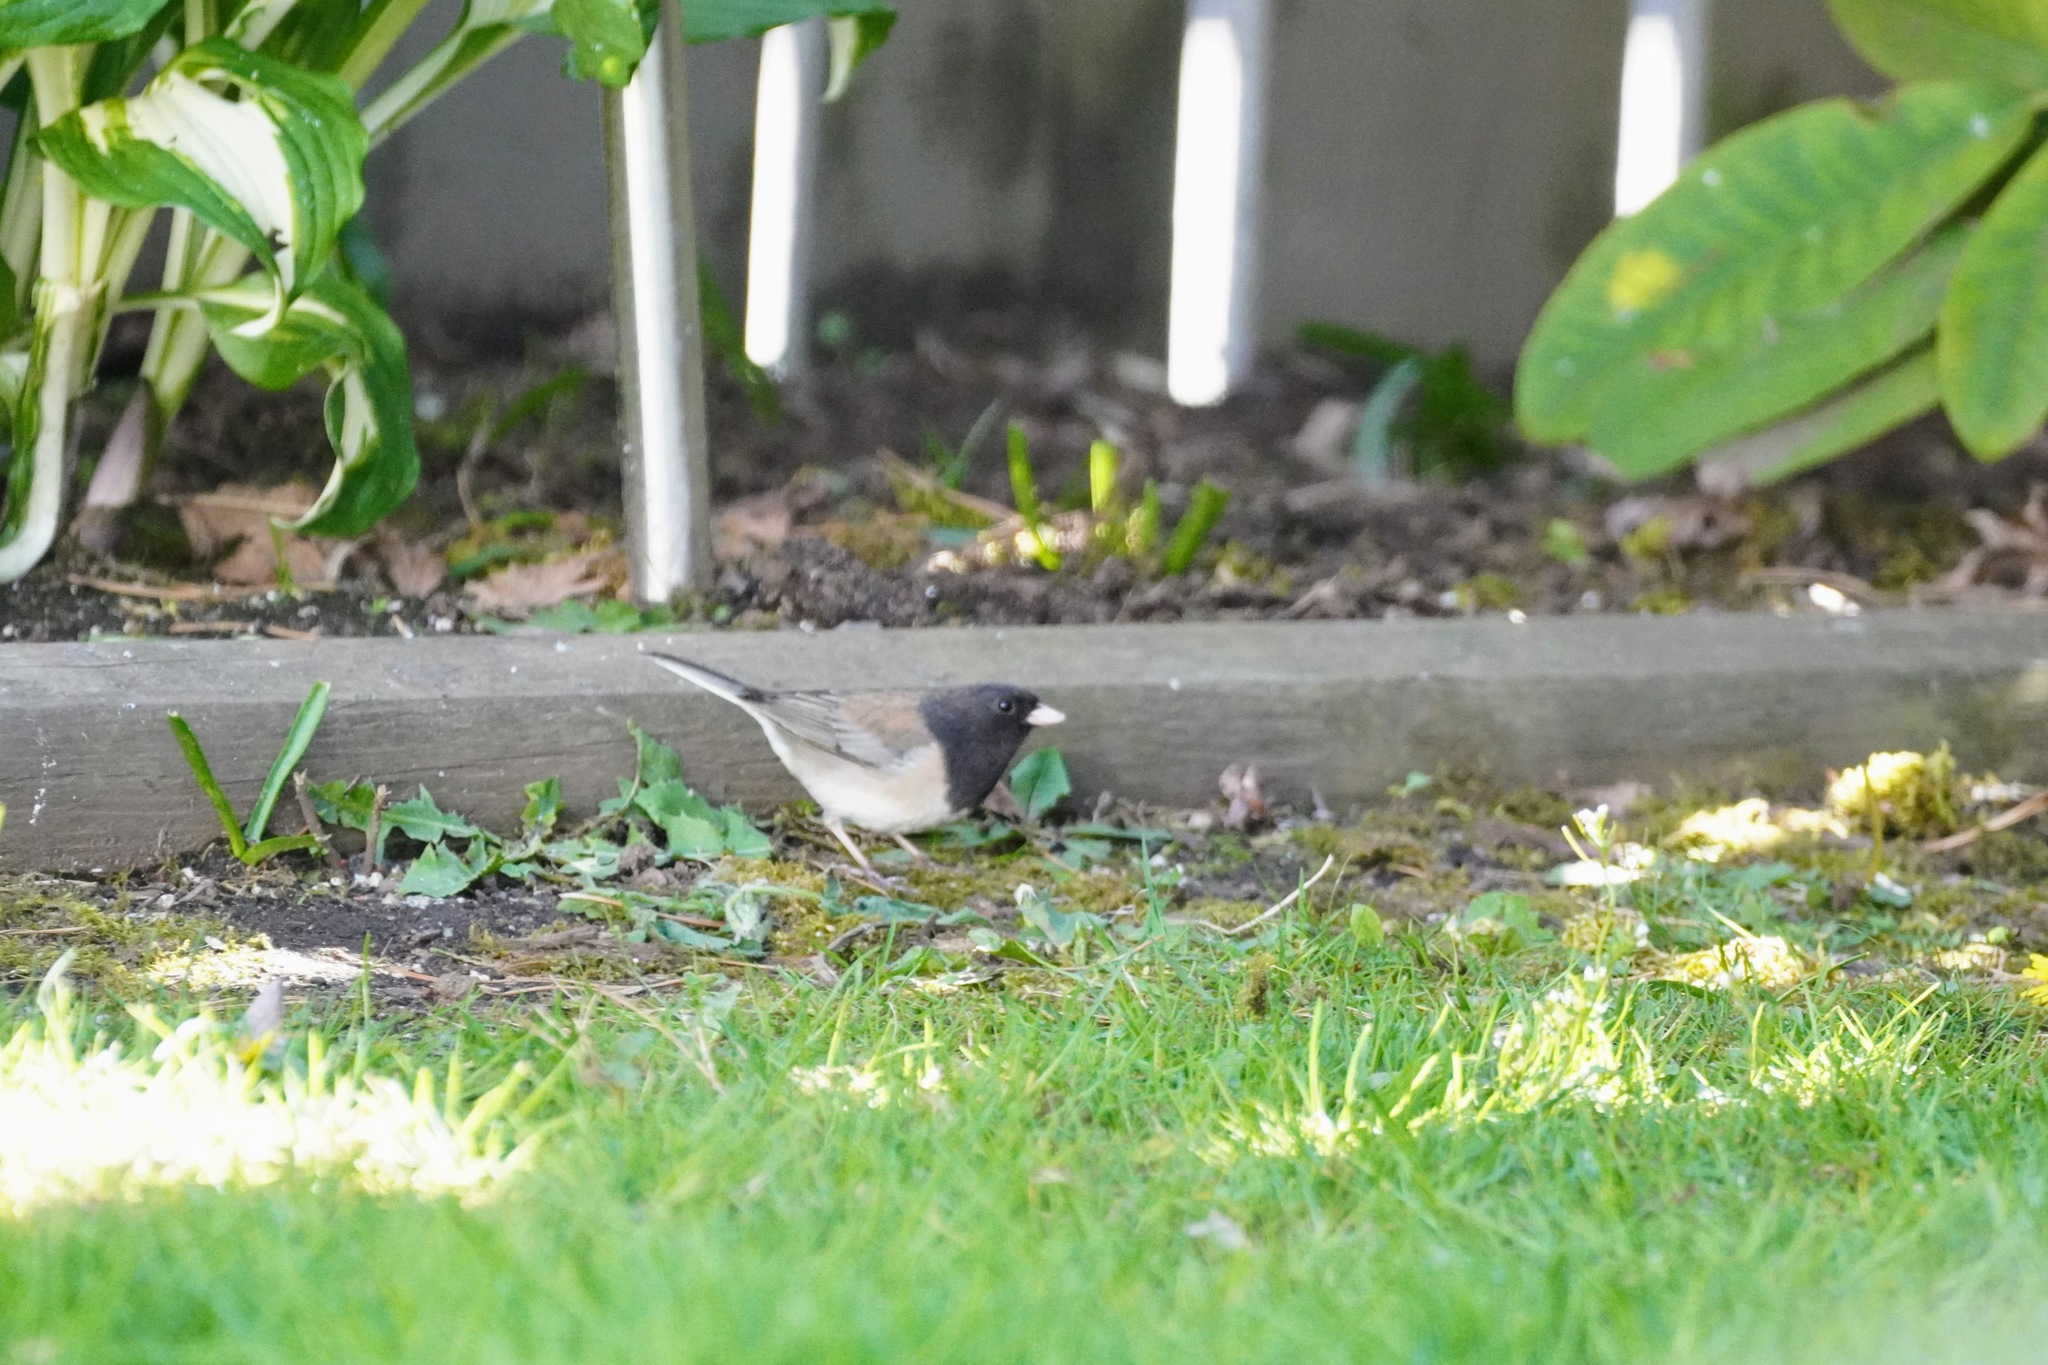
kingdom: Animalia
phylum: Chordata
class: Aves
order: Passeriformes
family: Passerellidae
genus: Junco
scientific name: Junco hyemalis
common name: Dark-eyed junco
